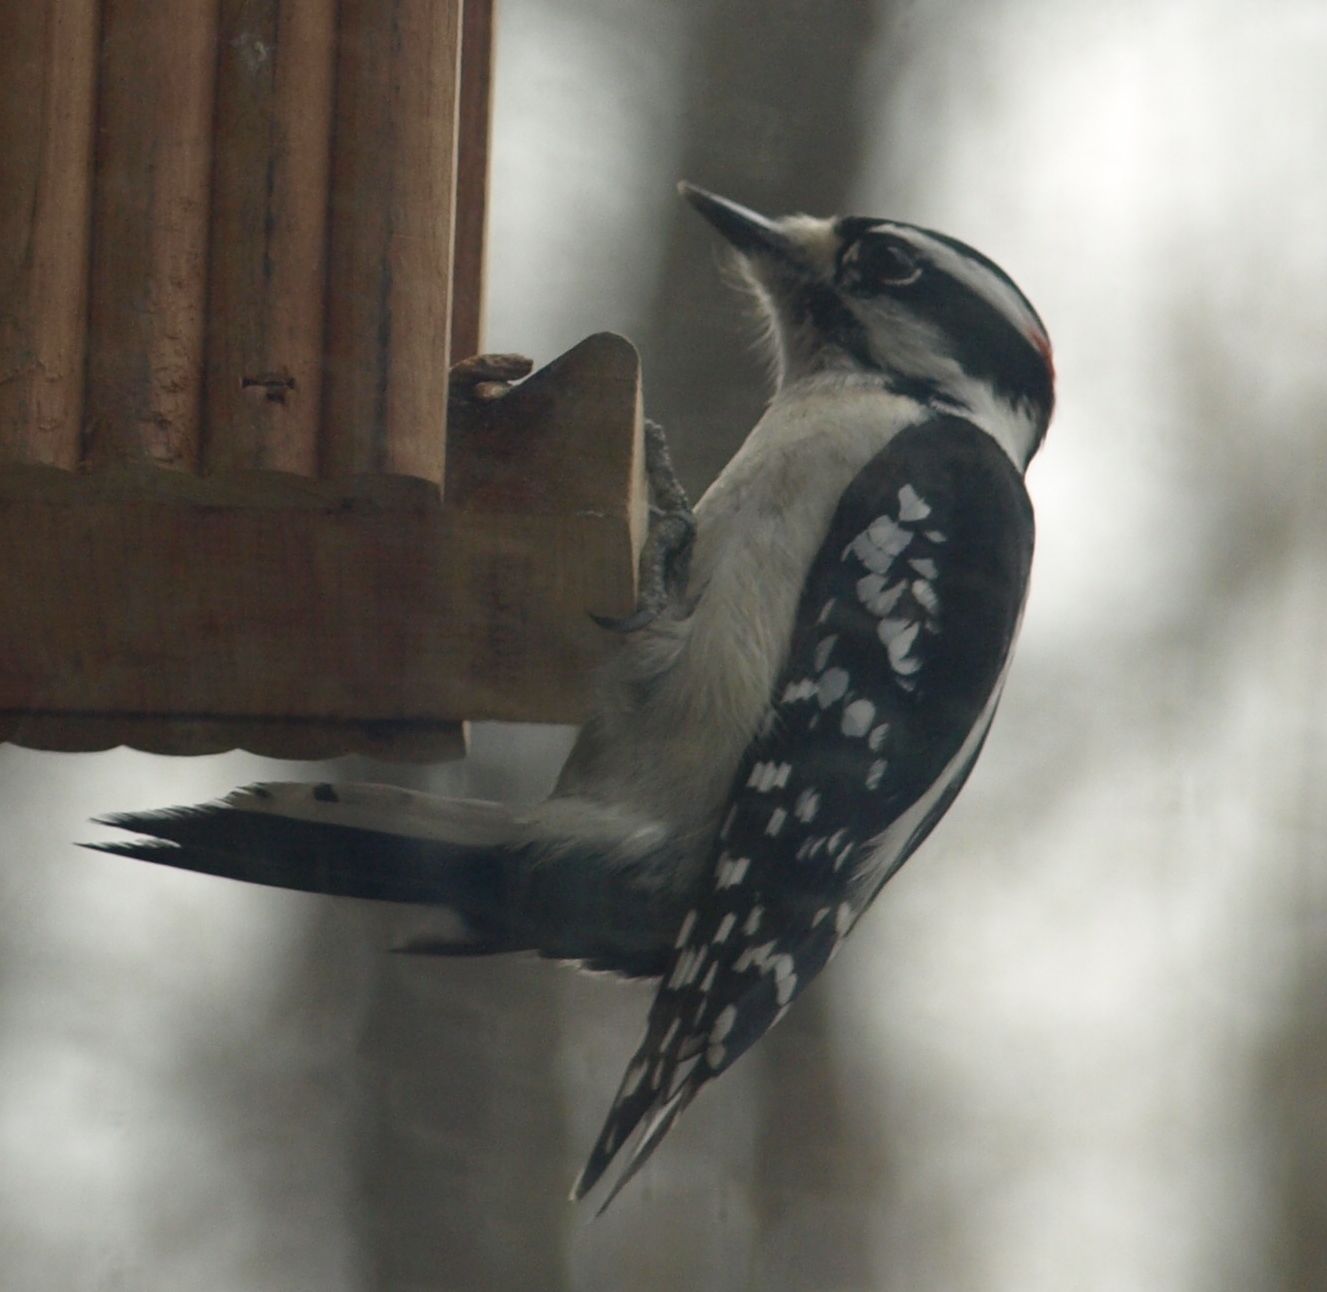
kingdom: Animalia
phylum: Chordata
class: Aves
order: Piciformes
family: Picidae
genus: Dryobates
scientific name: Dryobates pubescens
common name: Downy woodpecker
